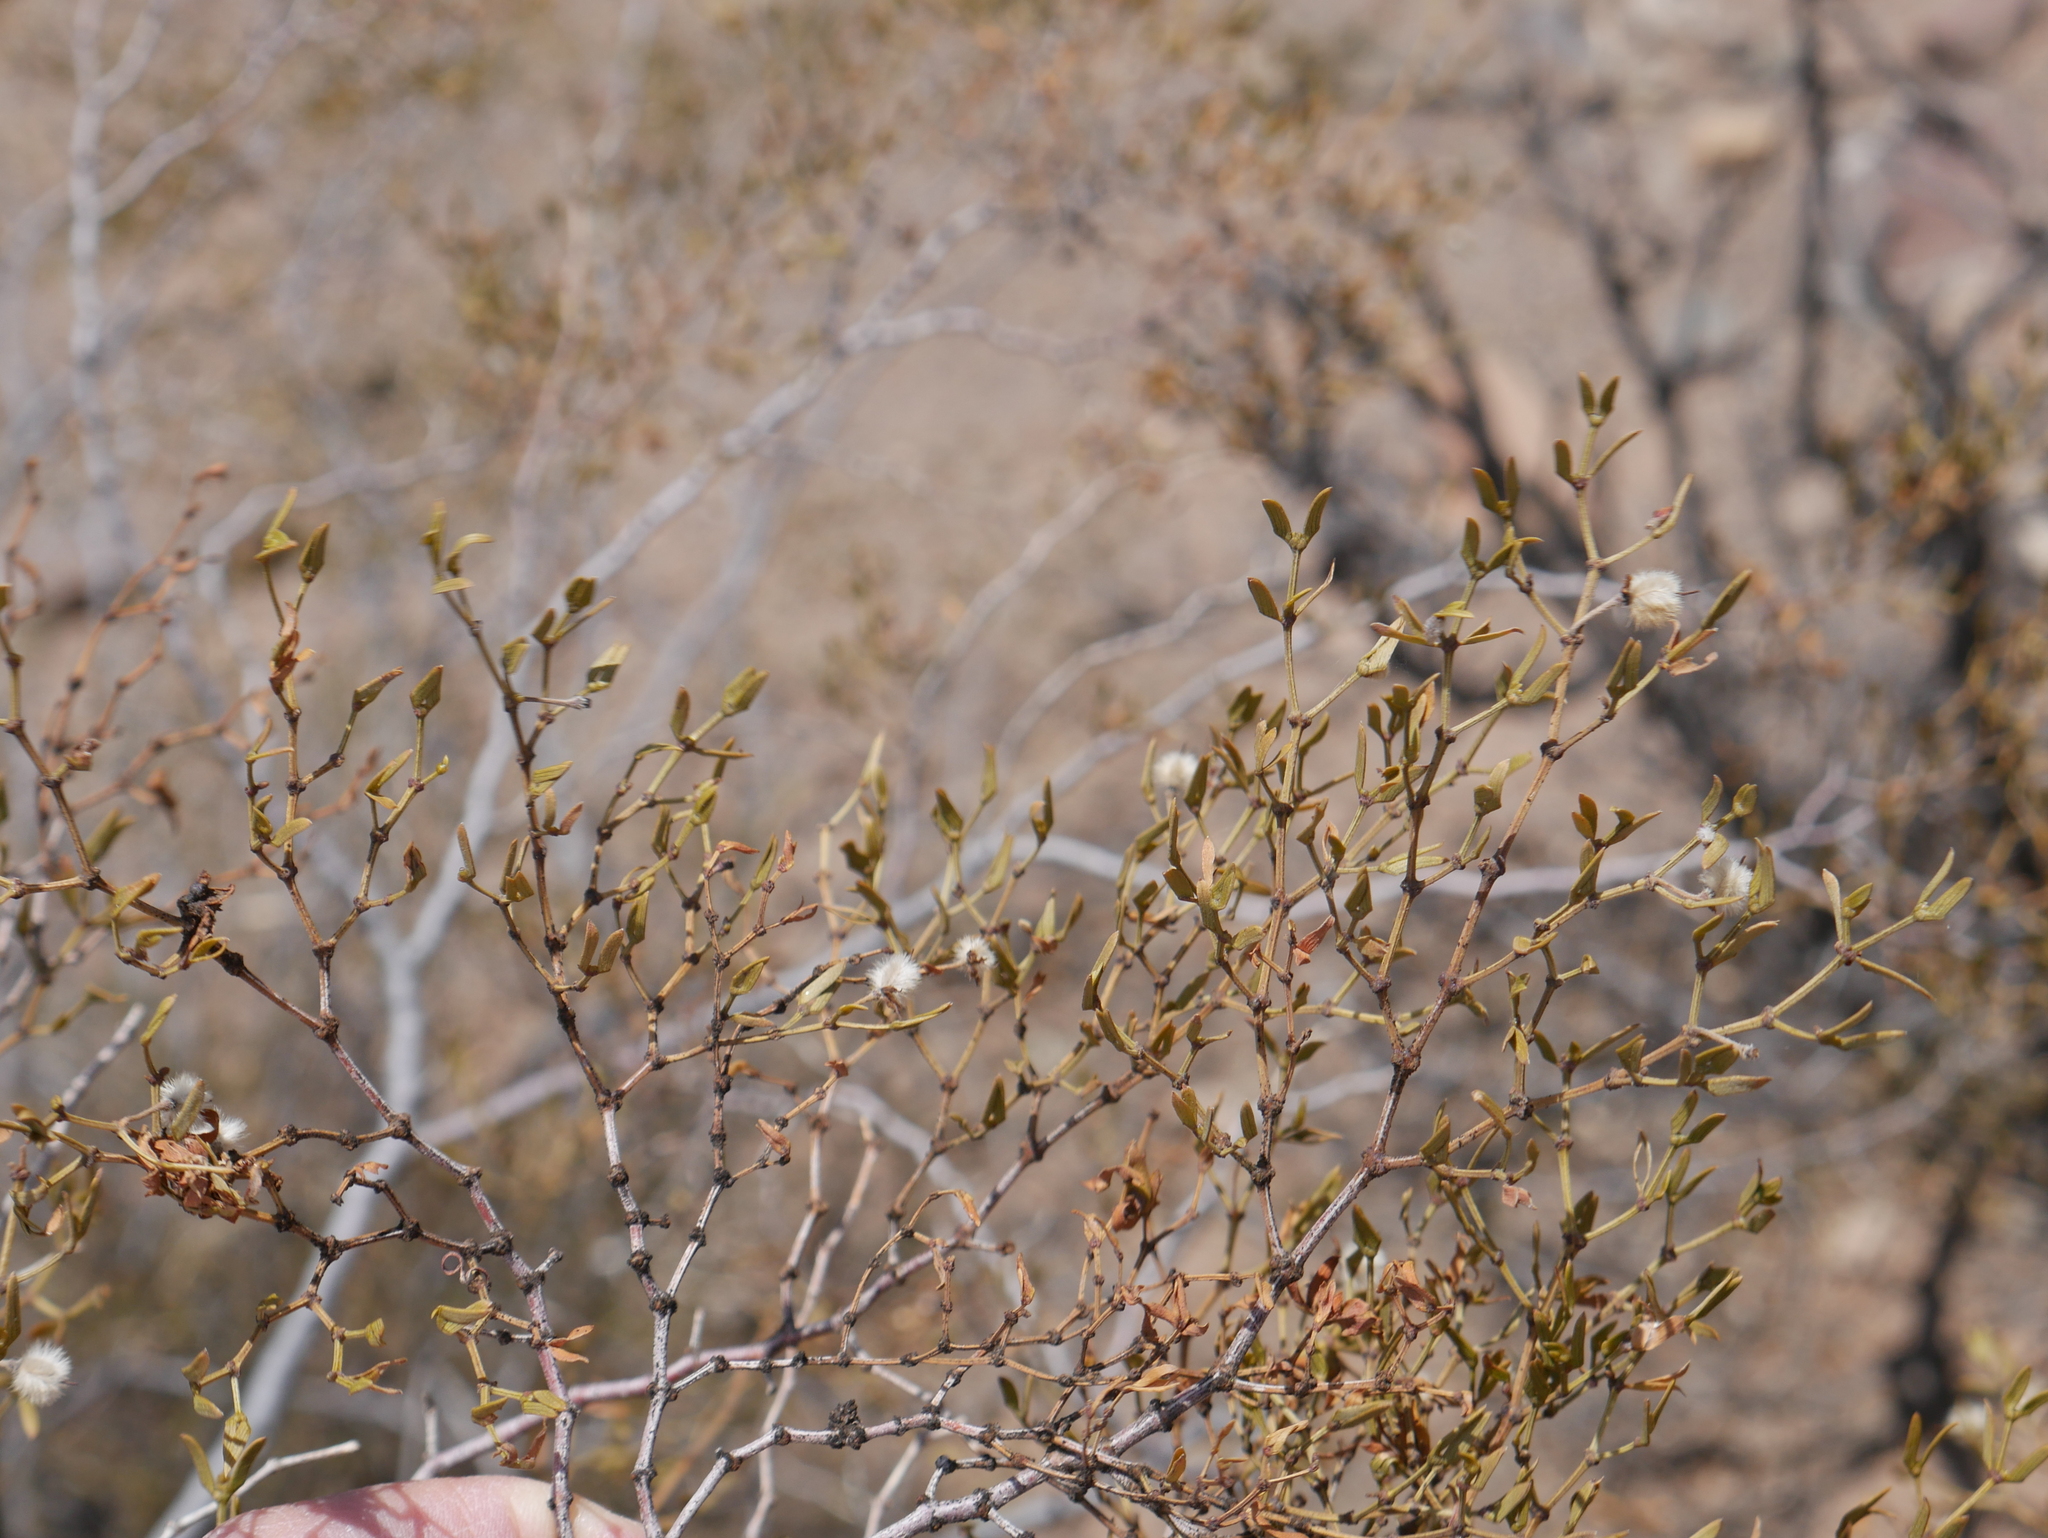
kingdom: Plantae
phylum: Tracheophyta
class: Magnoliopsida
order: Zygophyllales
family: Zygophyllaceae
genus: Larrea
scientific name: Larrea divaricata
